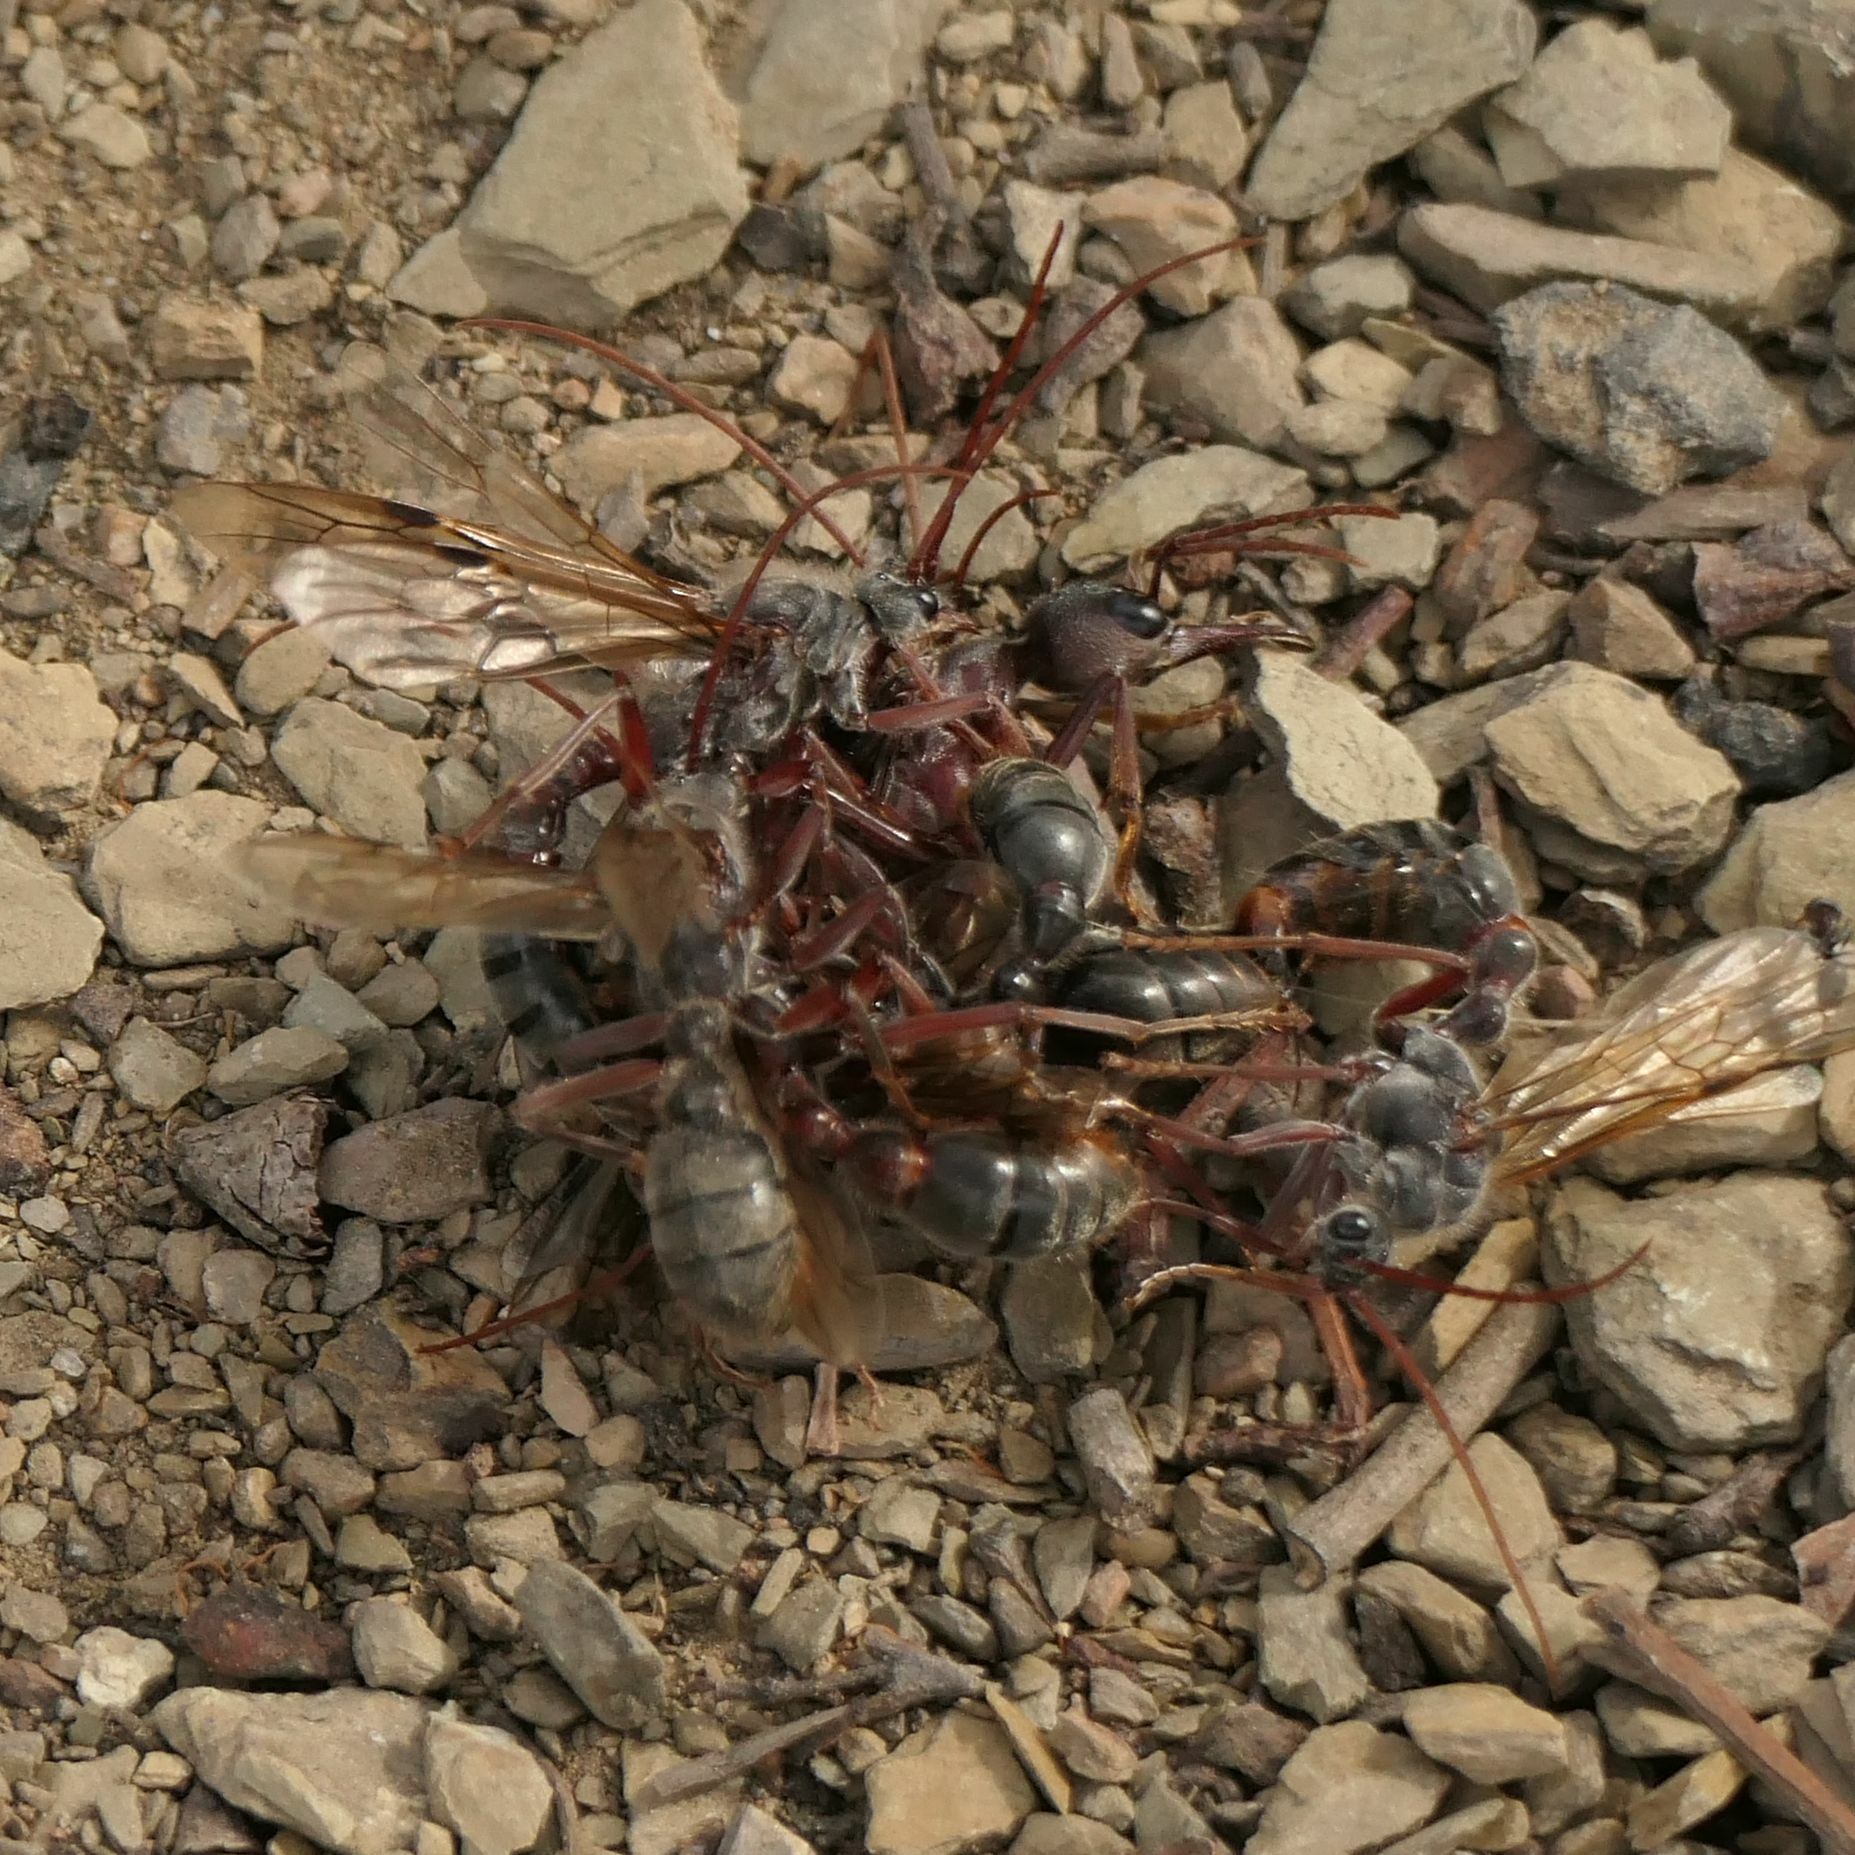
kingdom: Animalia
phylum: Arthropoda
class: Insecta
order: Hymenoptera
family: Formicidae
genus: Myrmecia
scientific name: Myrmecia pyriformis
